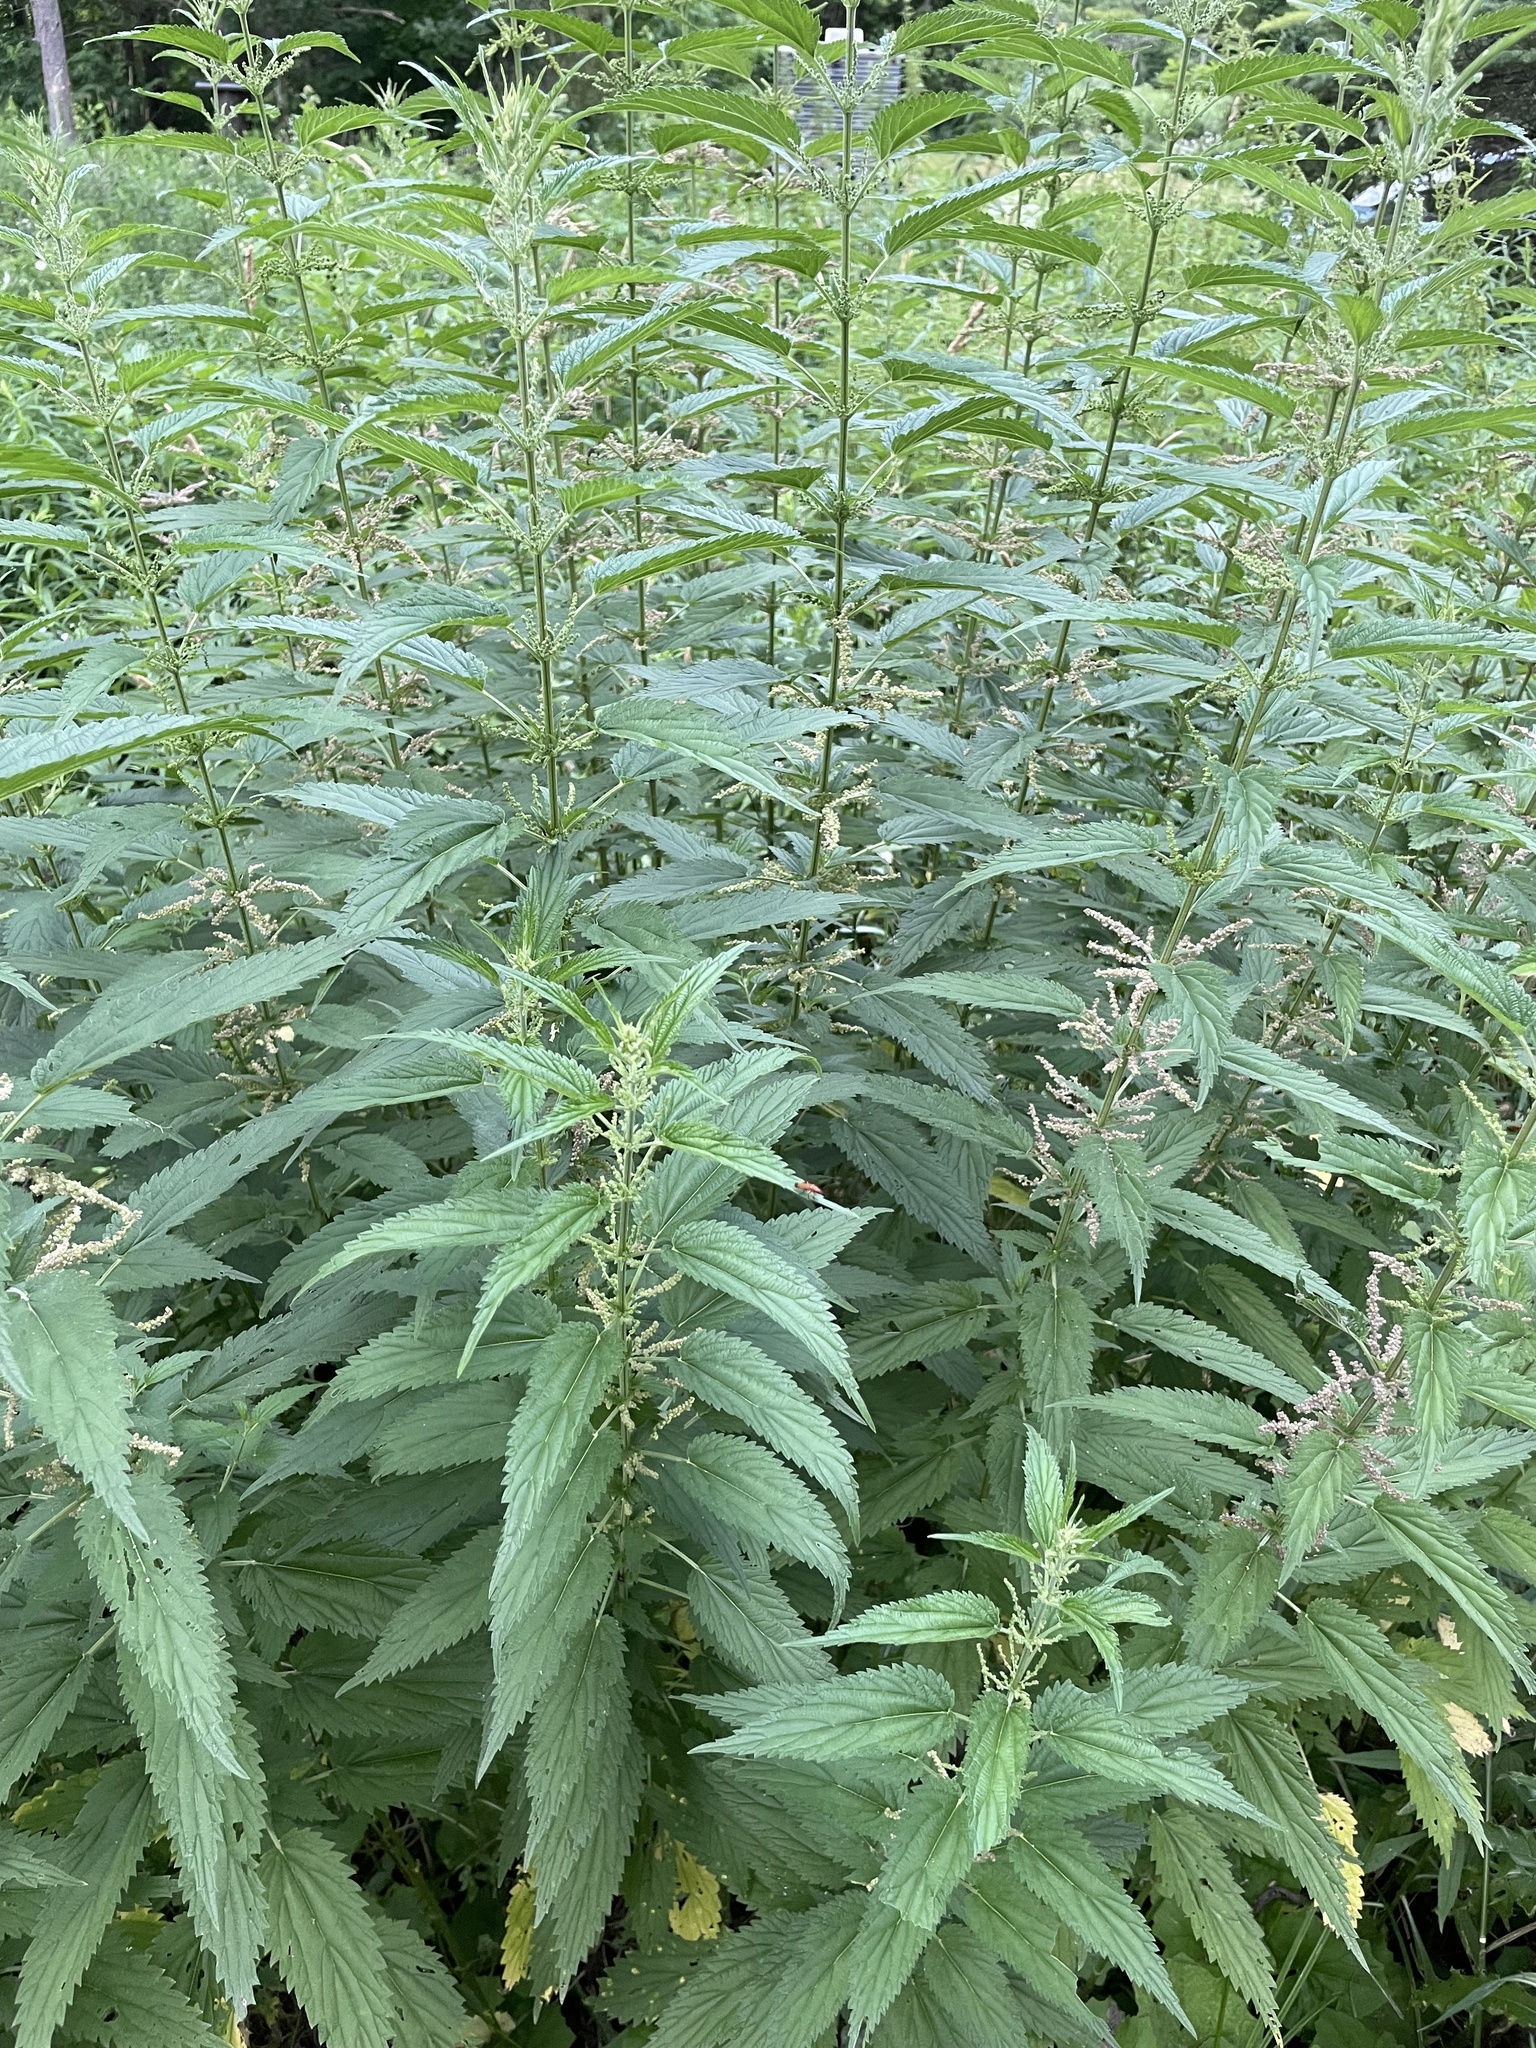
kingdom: Plantae
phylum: Tracheophyta
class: Magnoliopsida
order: Rosales
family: Urticaceae
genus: Urtica
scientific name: Urtica gracilis
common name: Slender stinging nettle
